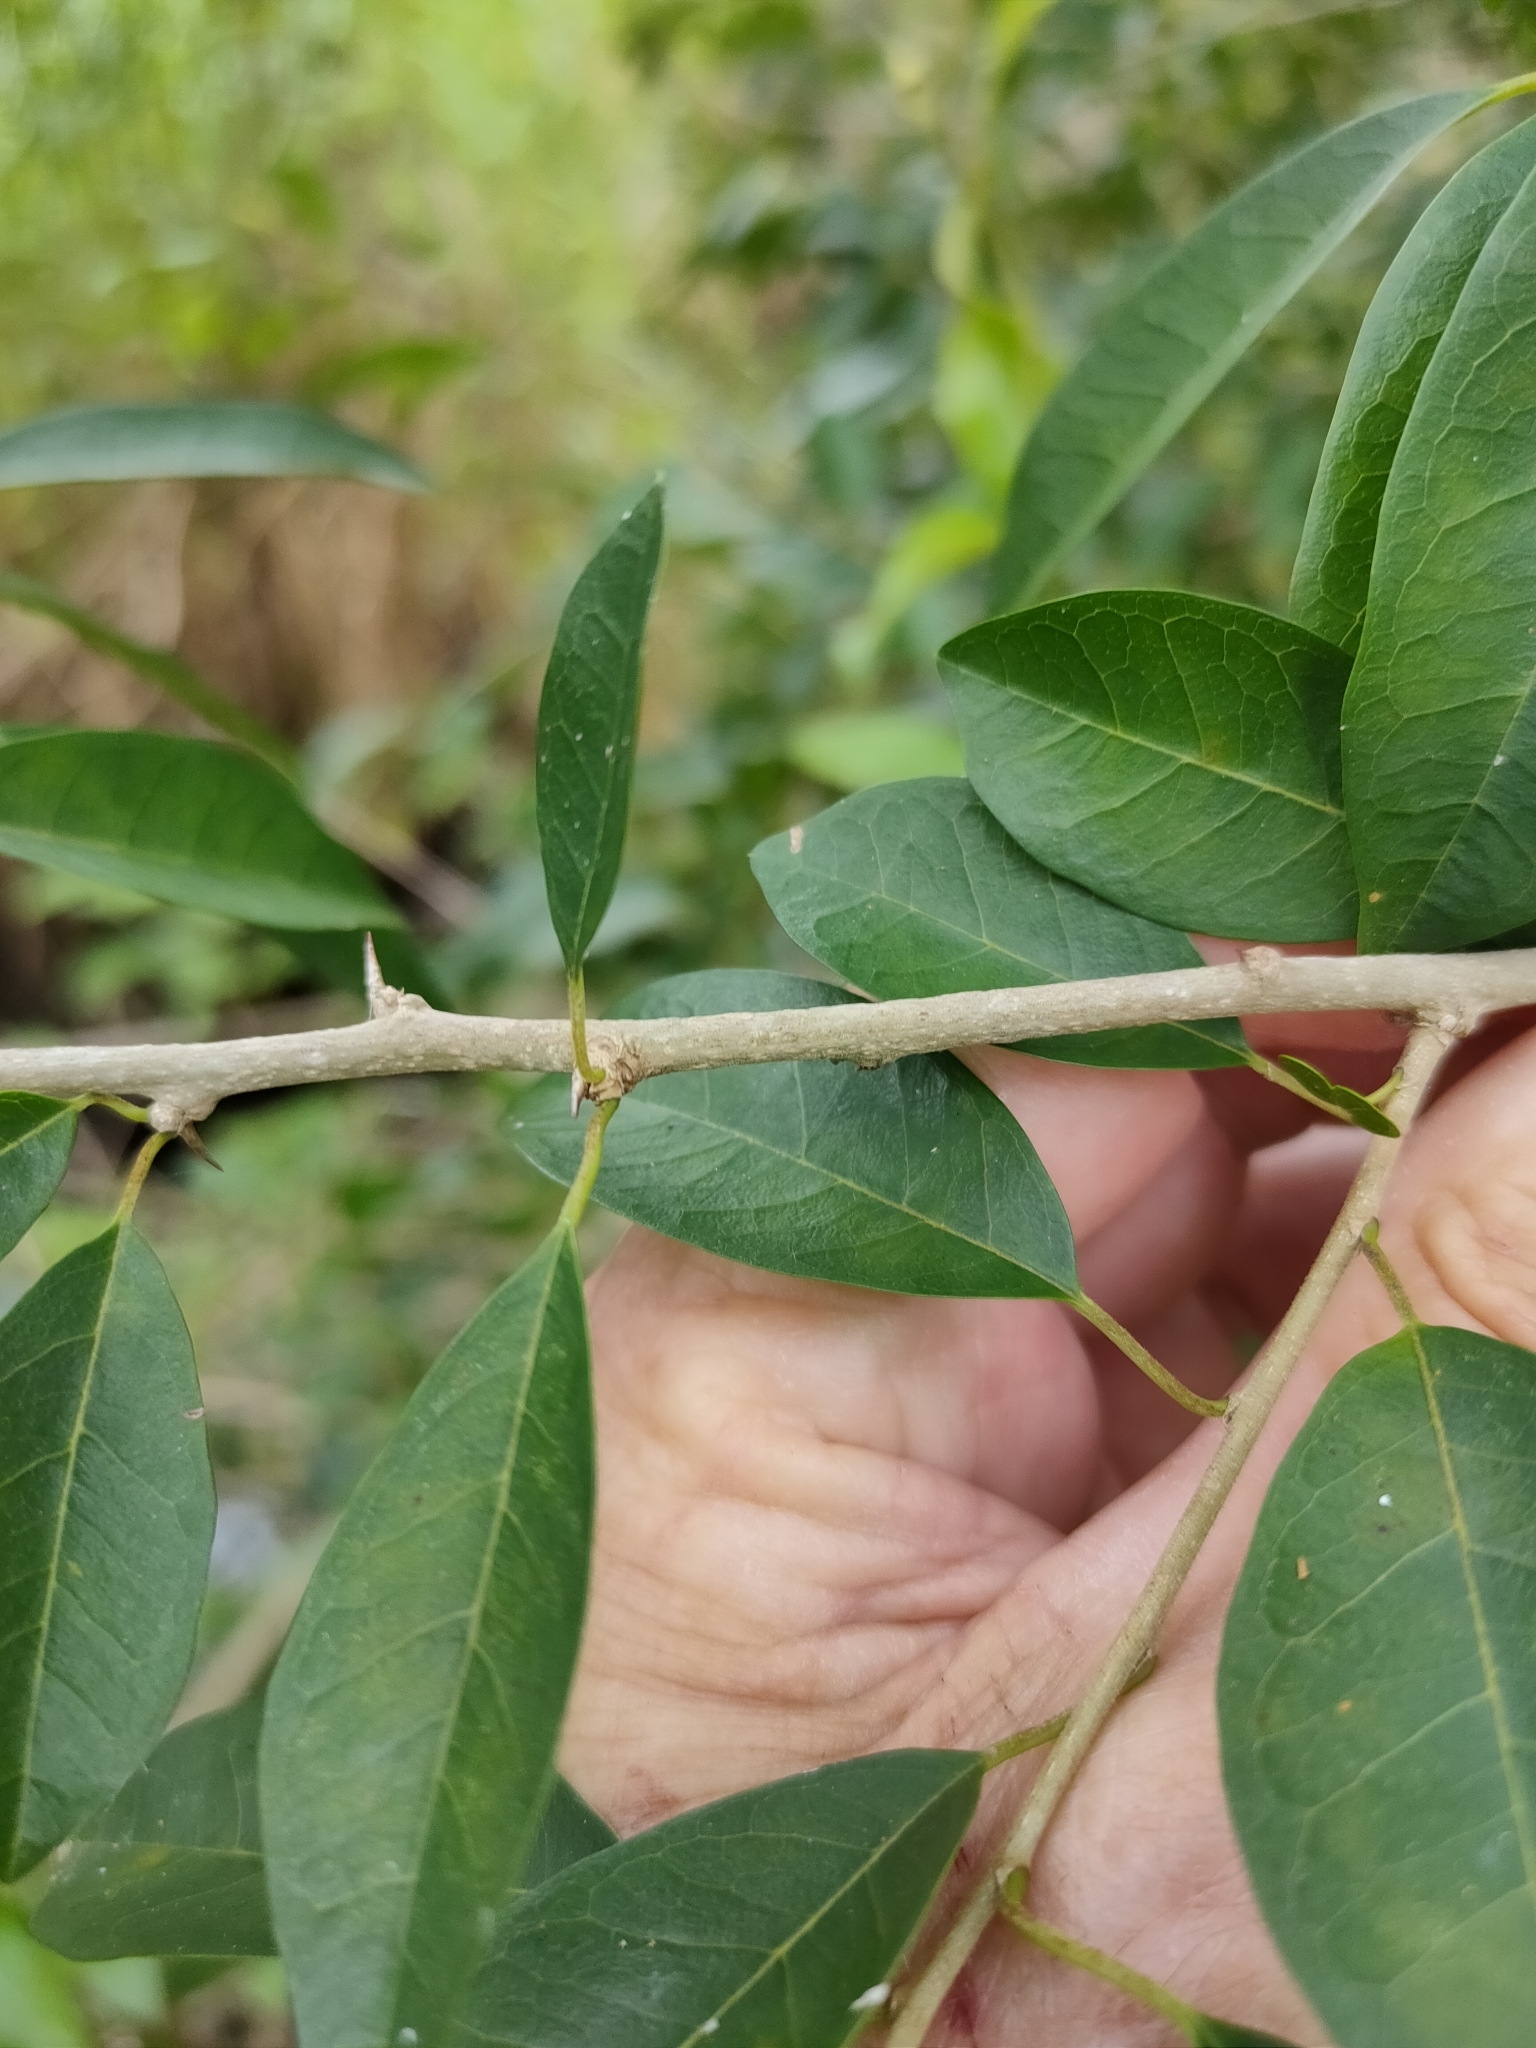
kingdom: Plantae
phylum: Tracheophyta
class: Magnoliopsida
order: Rosales
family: Moraceae
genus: Maclura
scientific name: Maclura cochinchinensis
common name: Cockspurthorn
